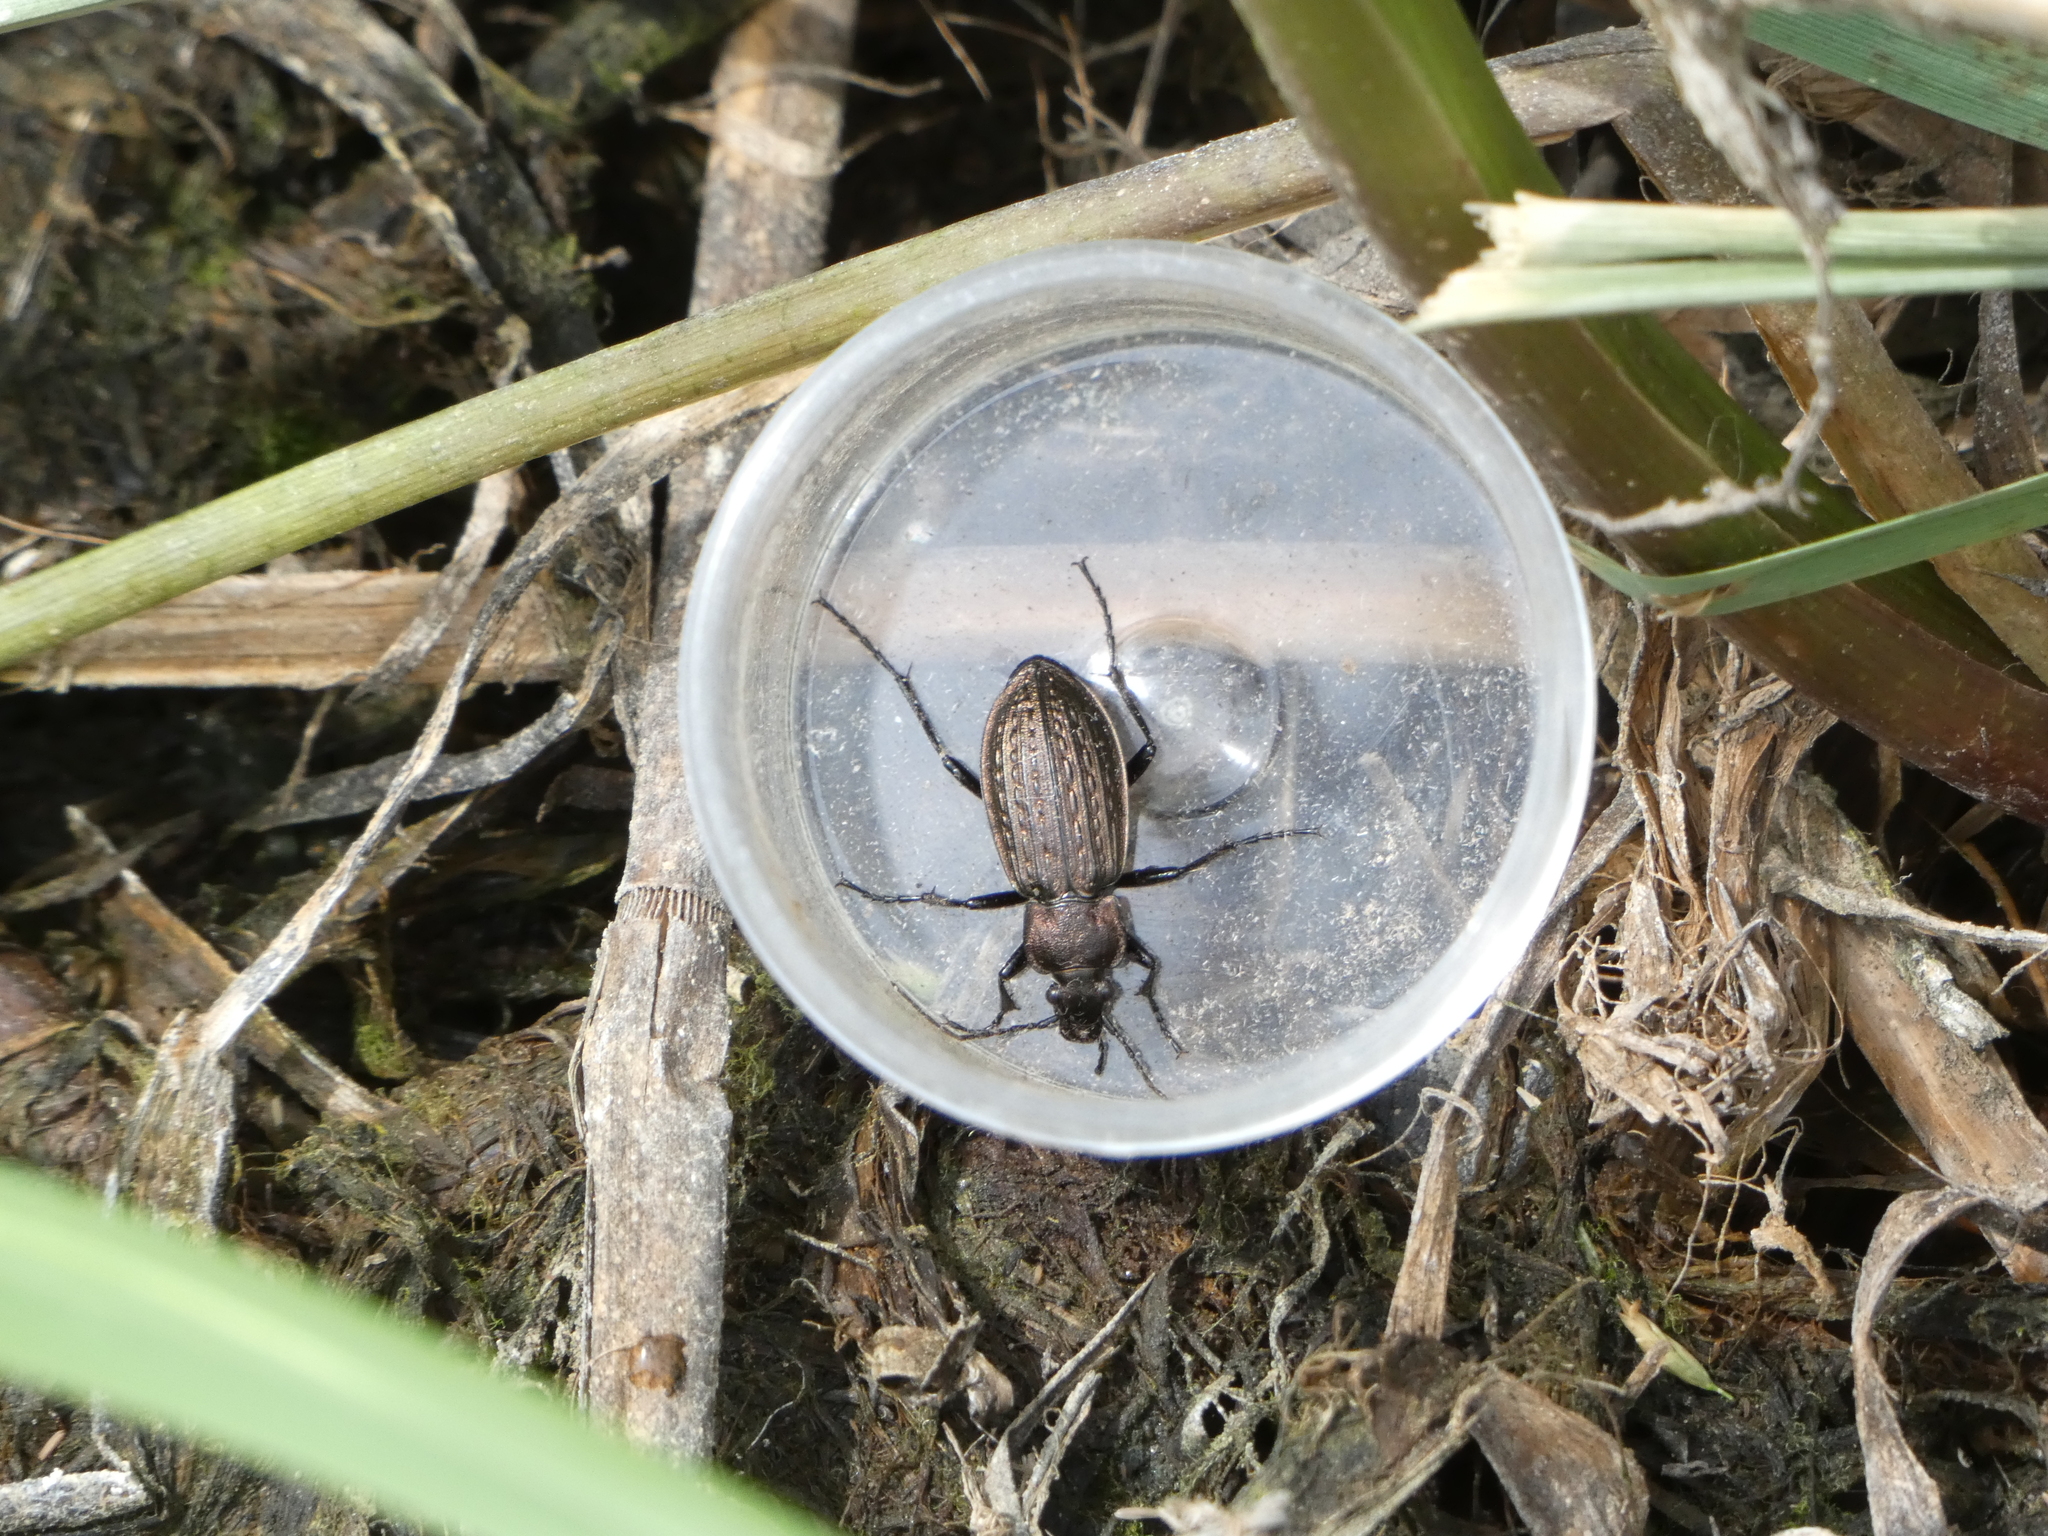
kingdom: Animalia
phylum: Arthropoda
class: Insecta
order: Coleoptera
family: Carabidae
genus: Carabus
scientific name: Carabus granulatus
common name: Granulate ground beetle
